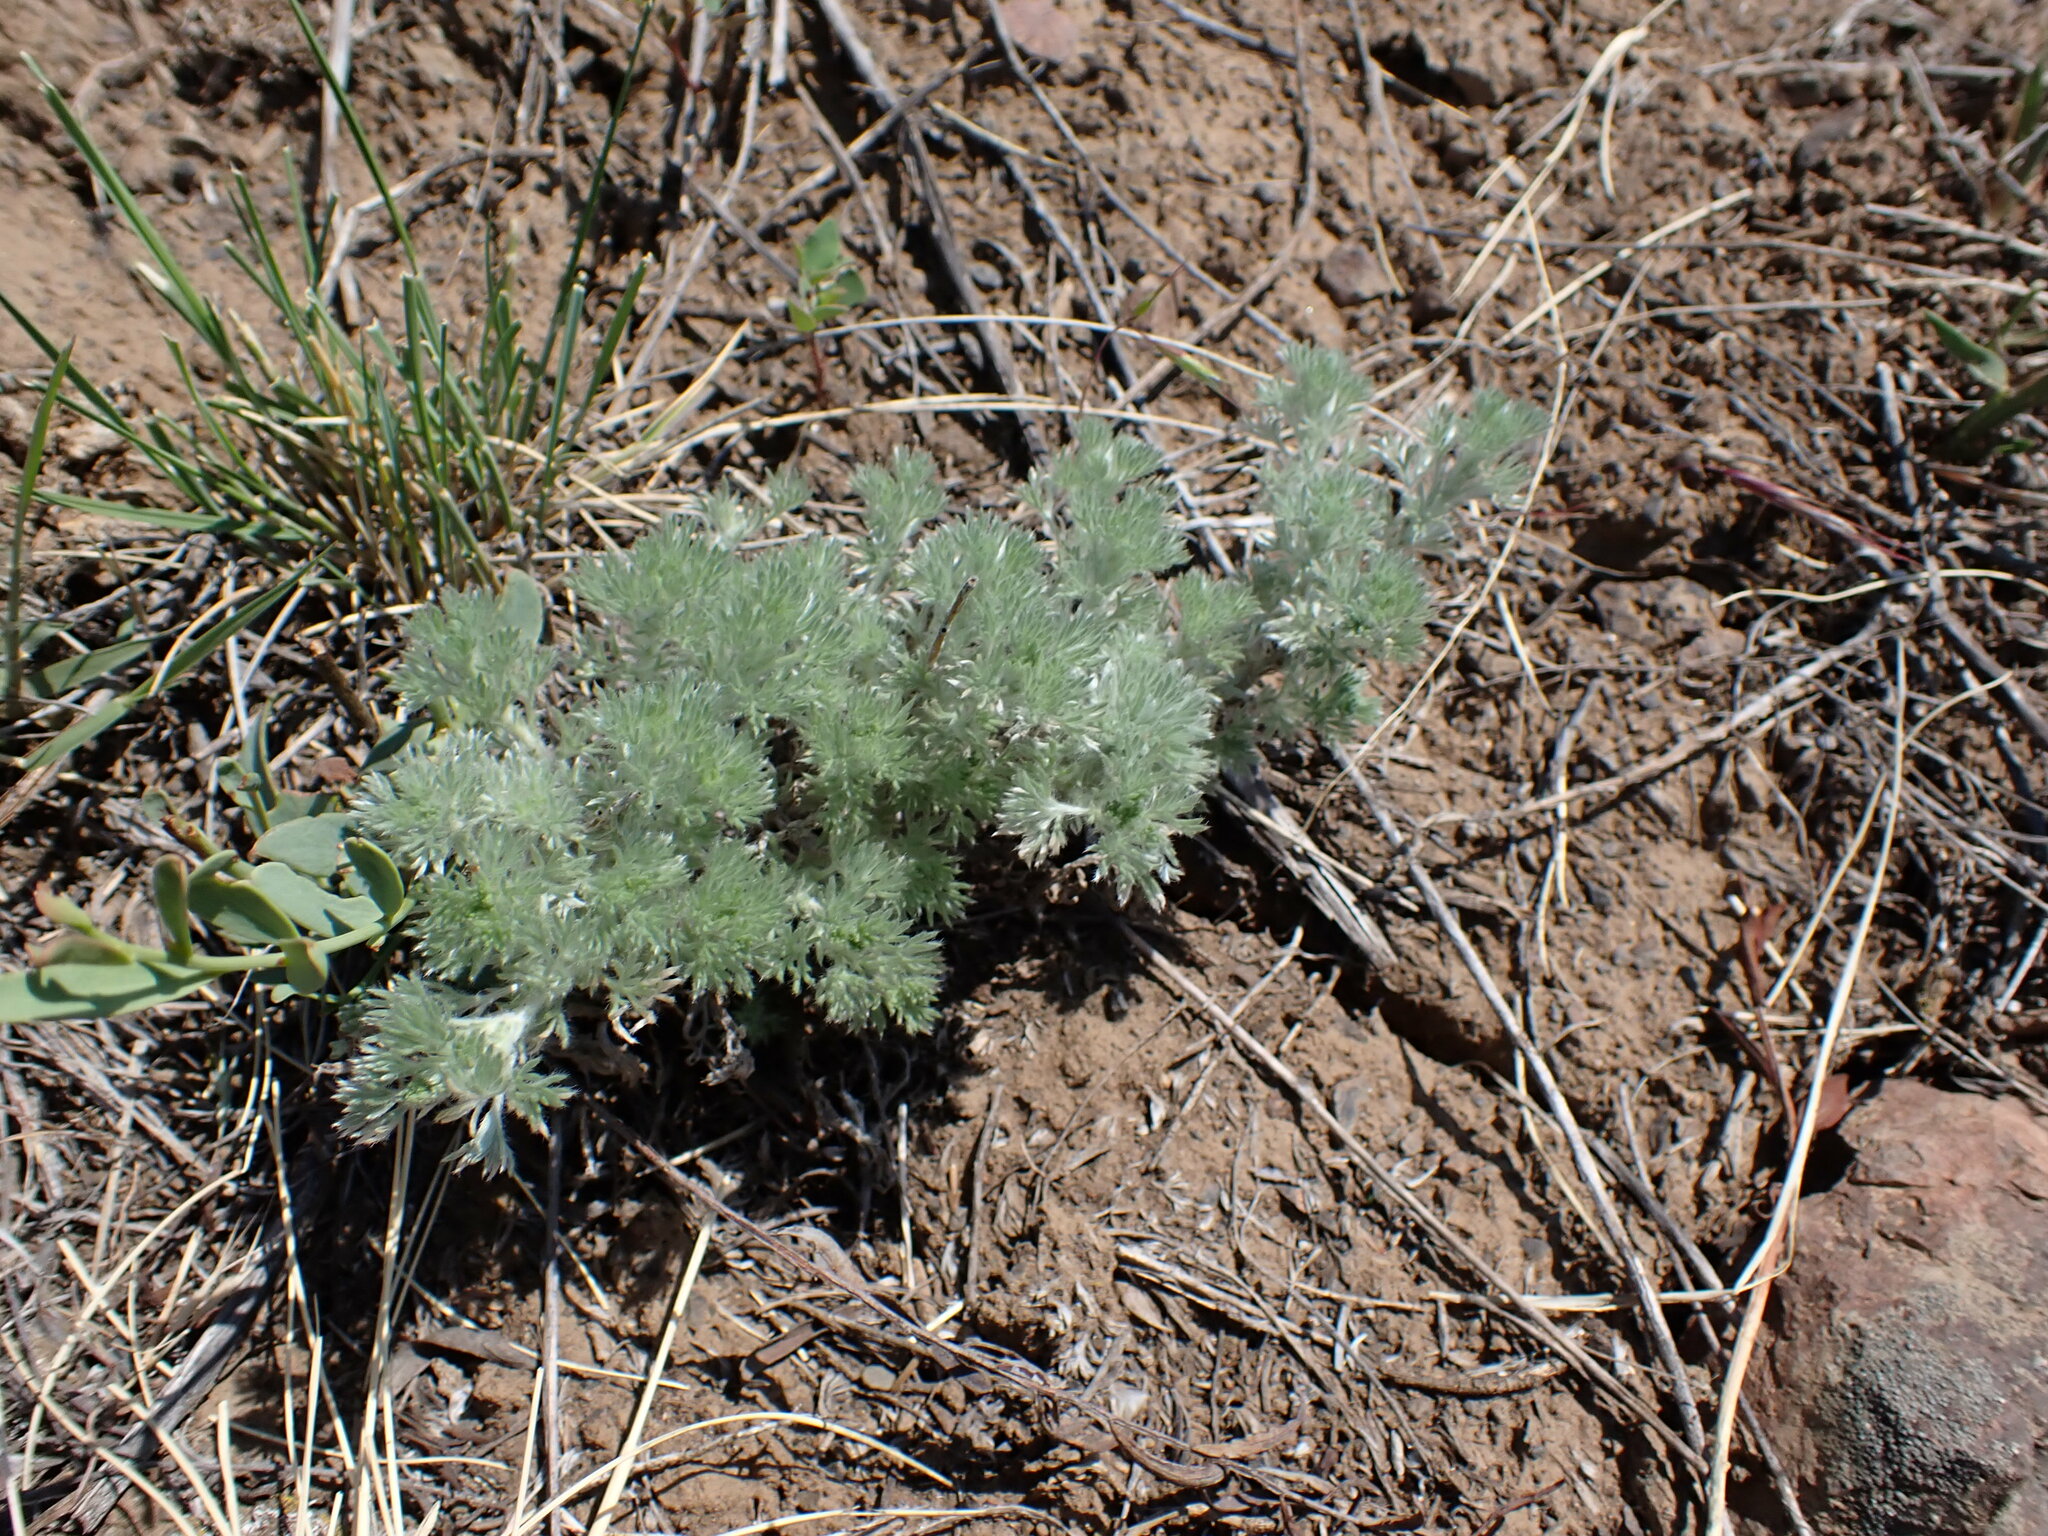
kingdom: Plantae
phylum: Tracheophyta
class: Magnoliopsida
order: Asterales
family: Asteraceae
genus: Artemisia
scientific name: Artemisia frigida
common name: Prairie sagewort
